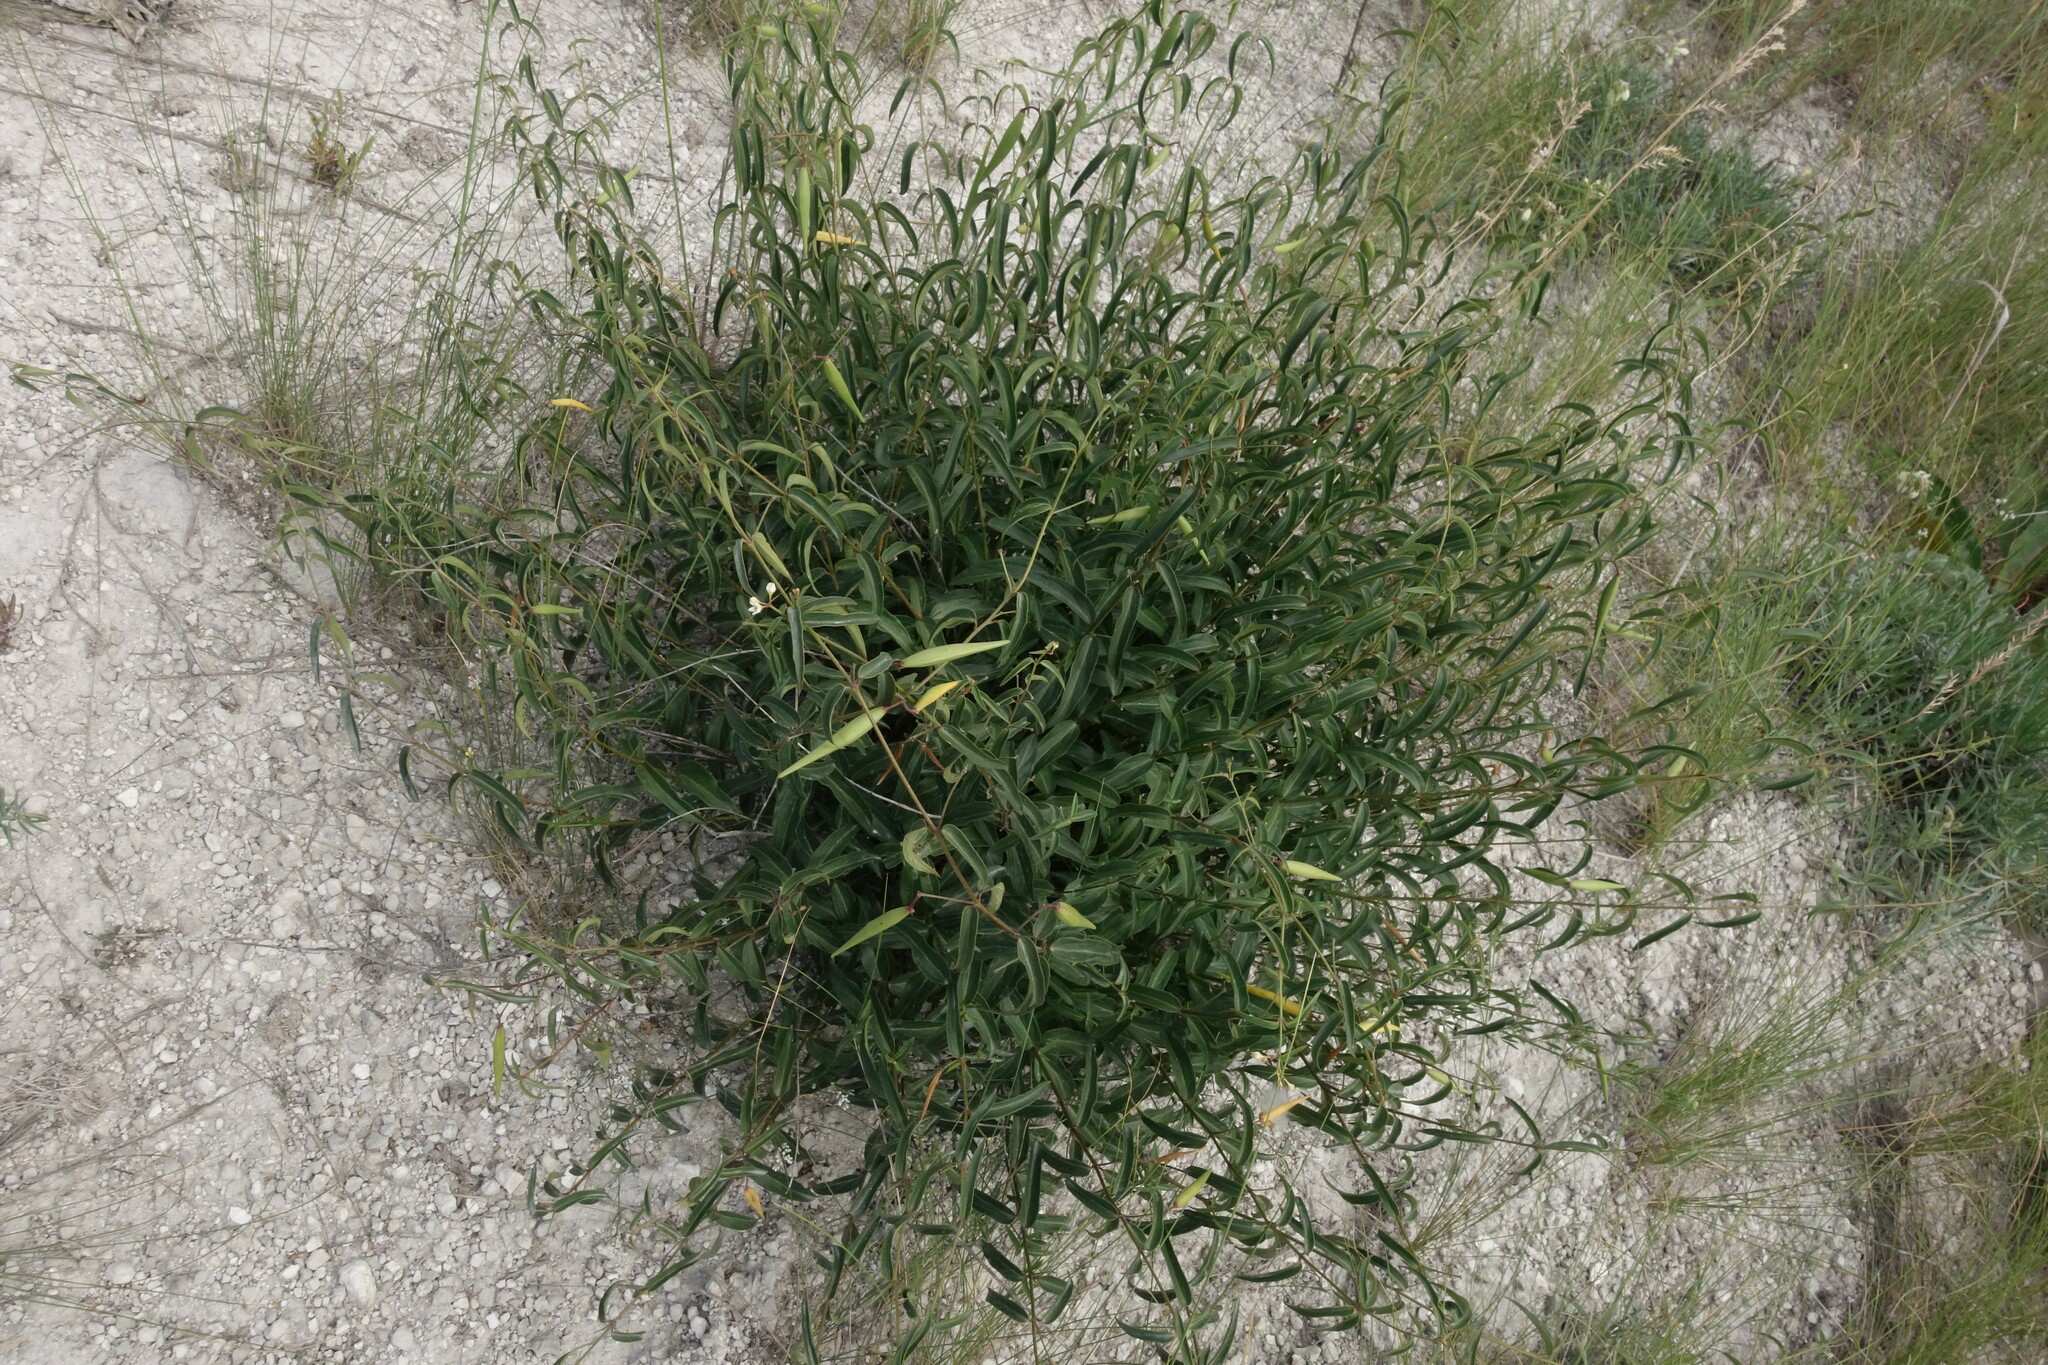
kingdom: Plantae
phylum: Tracheophyta
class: Magnoliopsida
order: Gentianales
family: Apocynaceae
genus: Vincetoxicum
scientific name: Vincetoxicum hirundinaria
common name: White swallowwort
